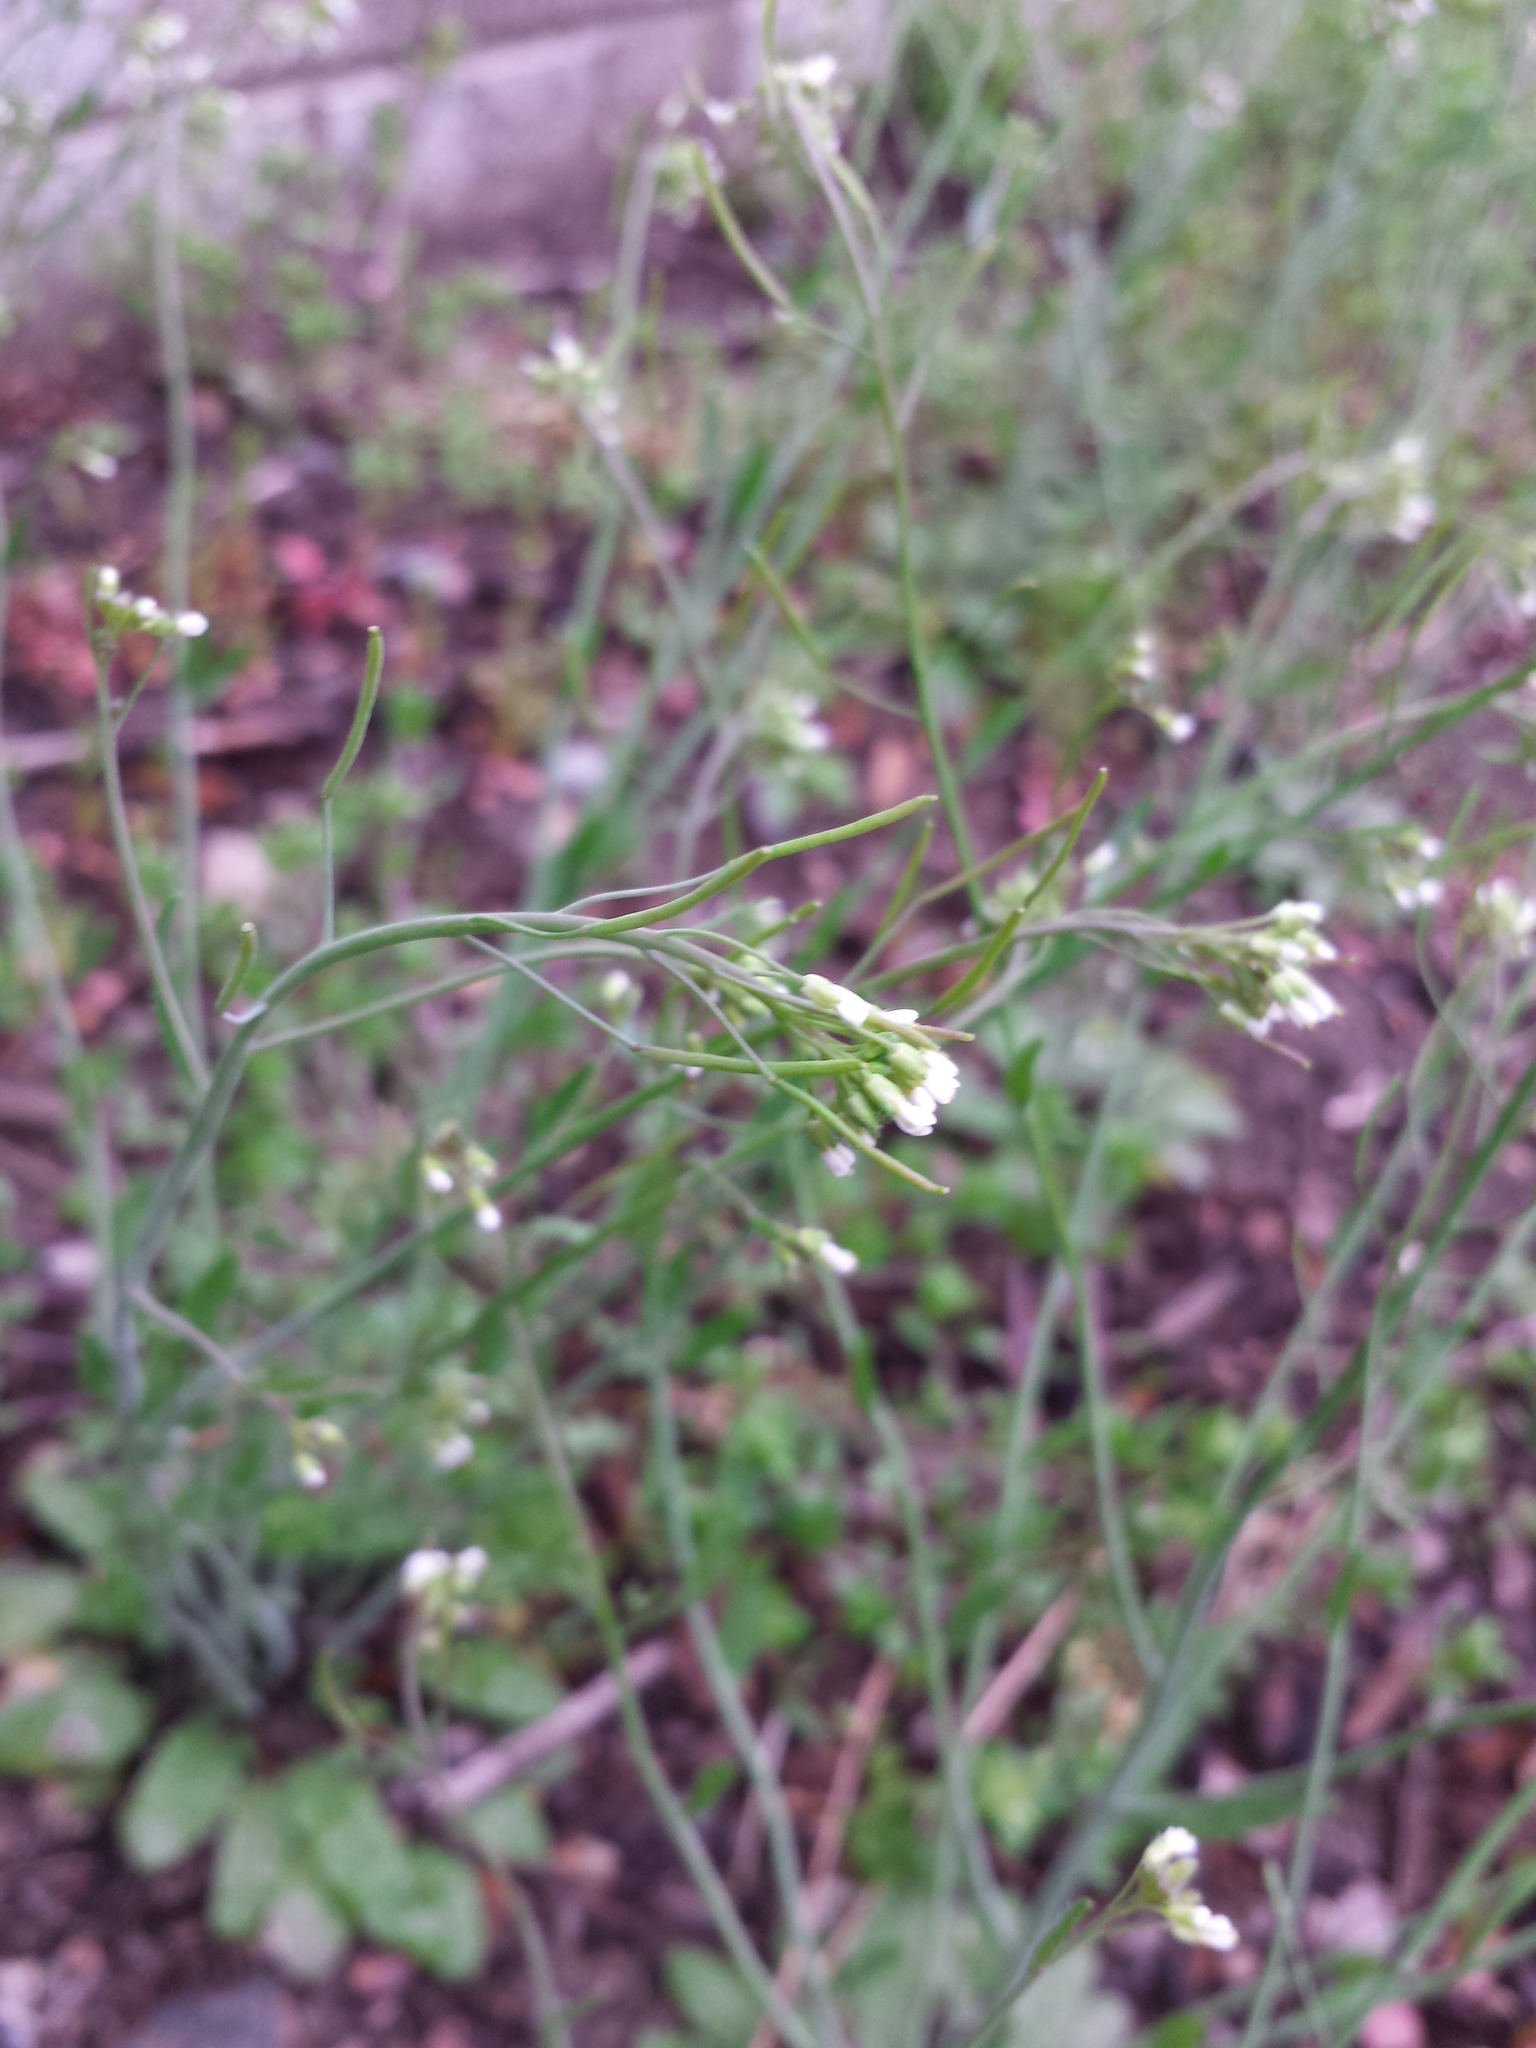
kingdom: Plantae
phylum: Tracheophyta
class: Magnoliopsida
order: Brassicales
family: Brassicaceae
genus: Arabidopsis
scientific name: Arabidopsis thaliana
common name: Thale cress
